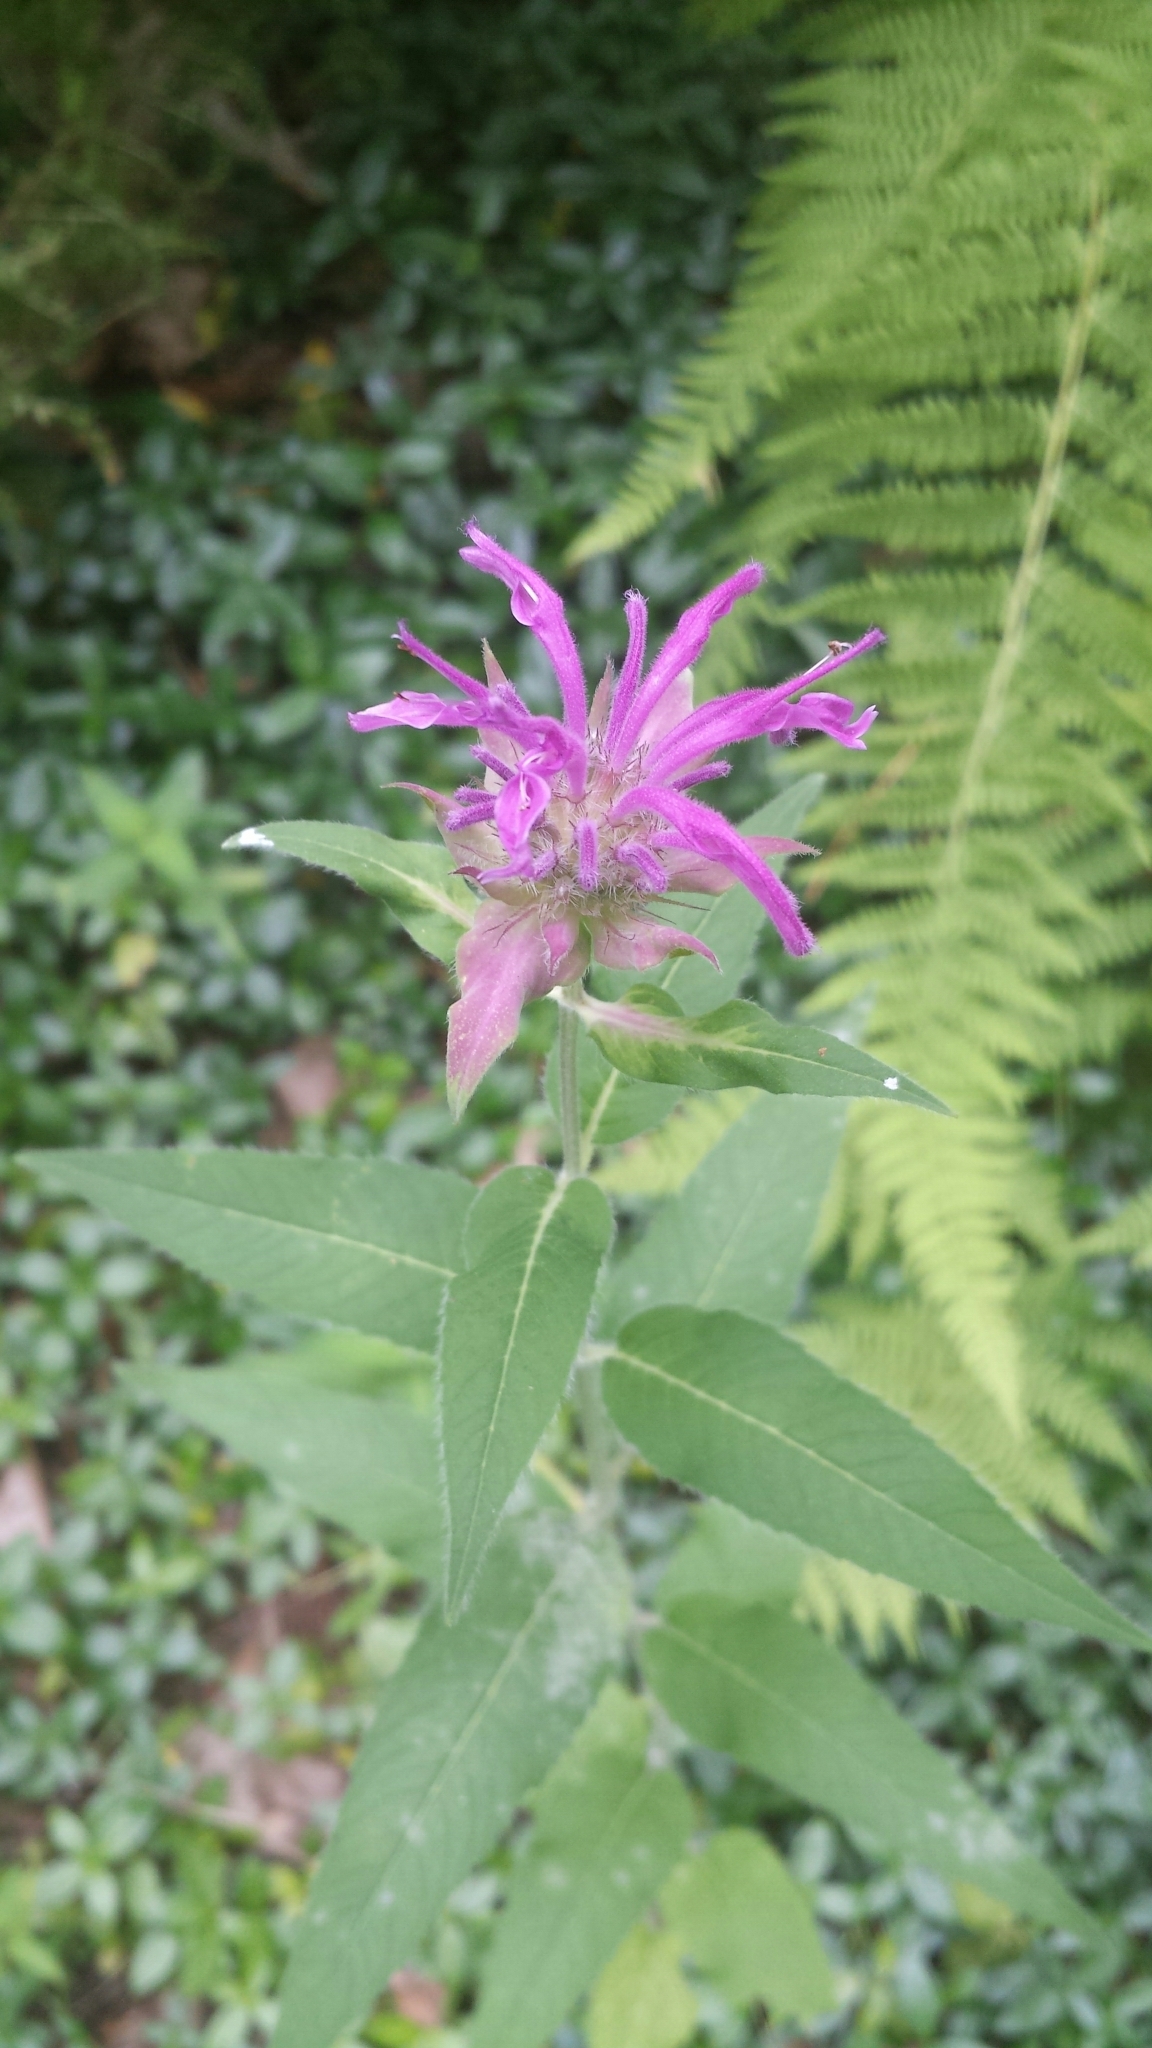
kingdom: Plantae
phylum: Tracheophyta
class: Magnoliopsida
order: Lamiales
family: Lamiaceae
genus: Monarda
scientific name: Monarda fistulosa
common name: Purple beebalm
